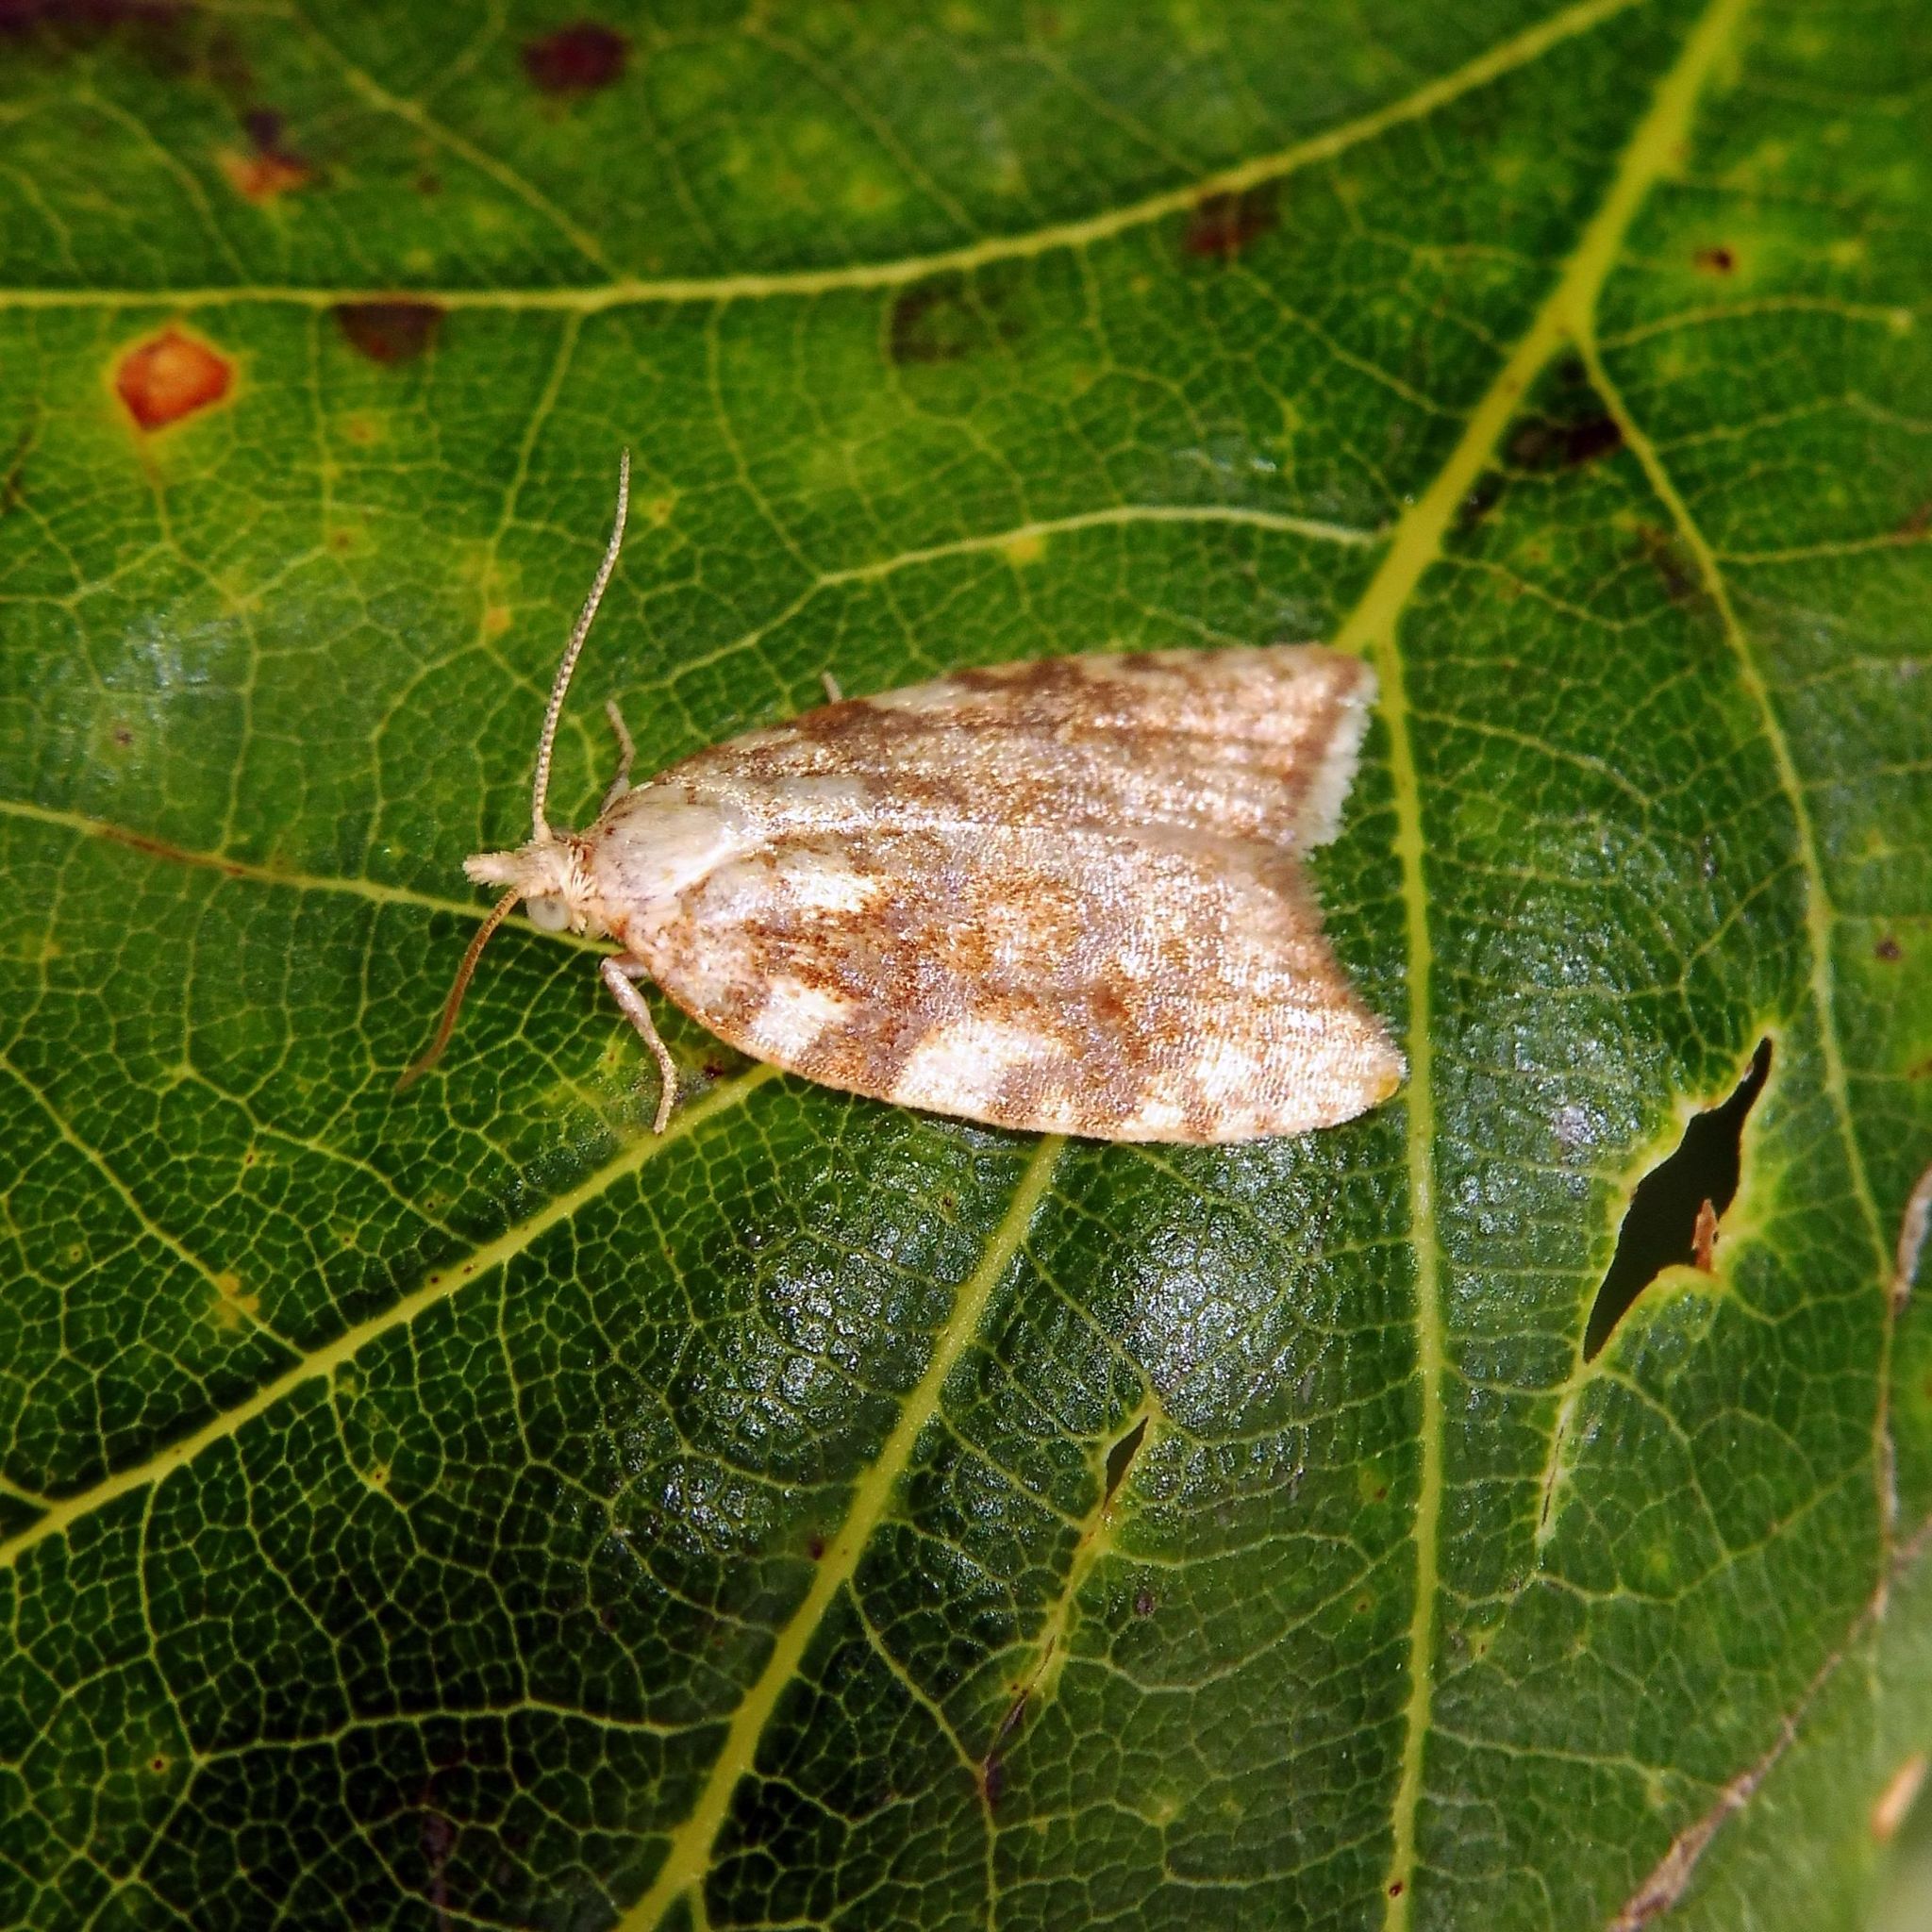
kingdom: Animalia
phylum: Arthropoda
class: Insecta
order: Lepidoptera
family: Tortricidae
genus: Aleimma
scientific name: Aleimma loeflingiana
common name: Yellow oak button
